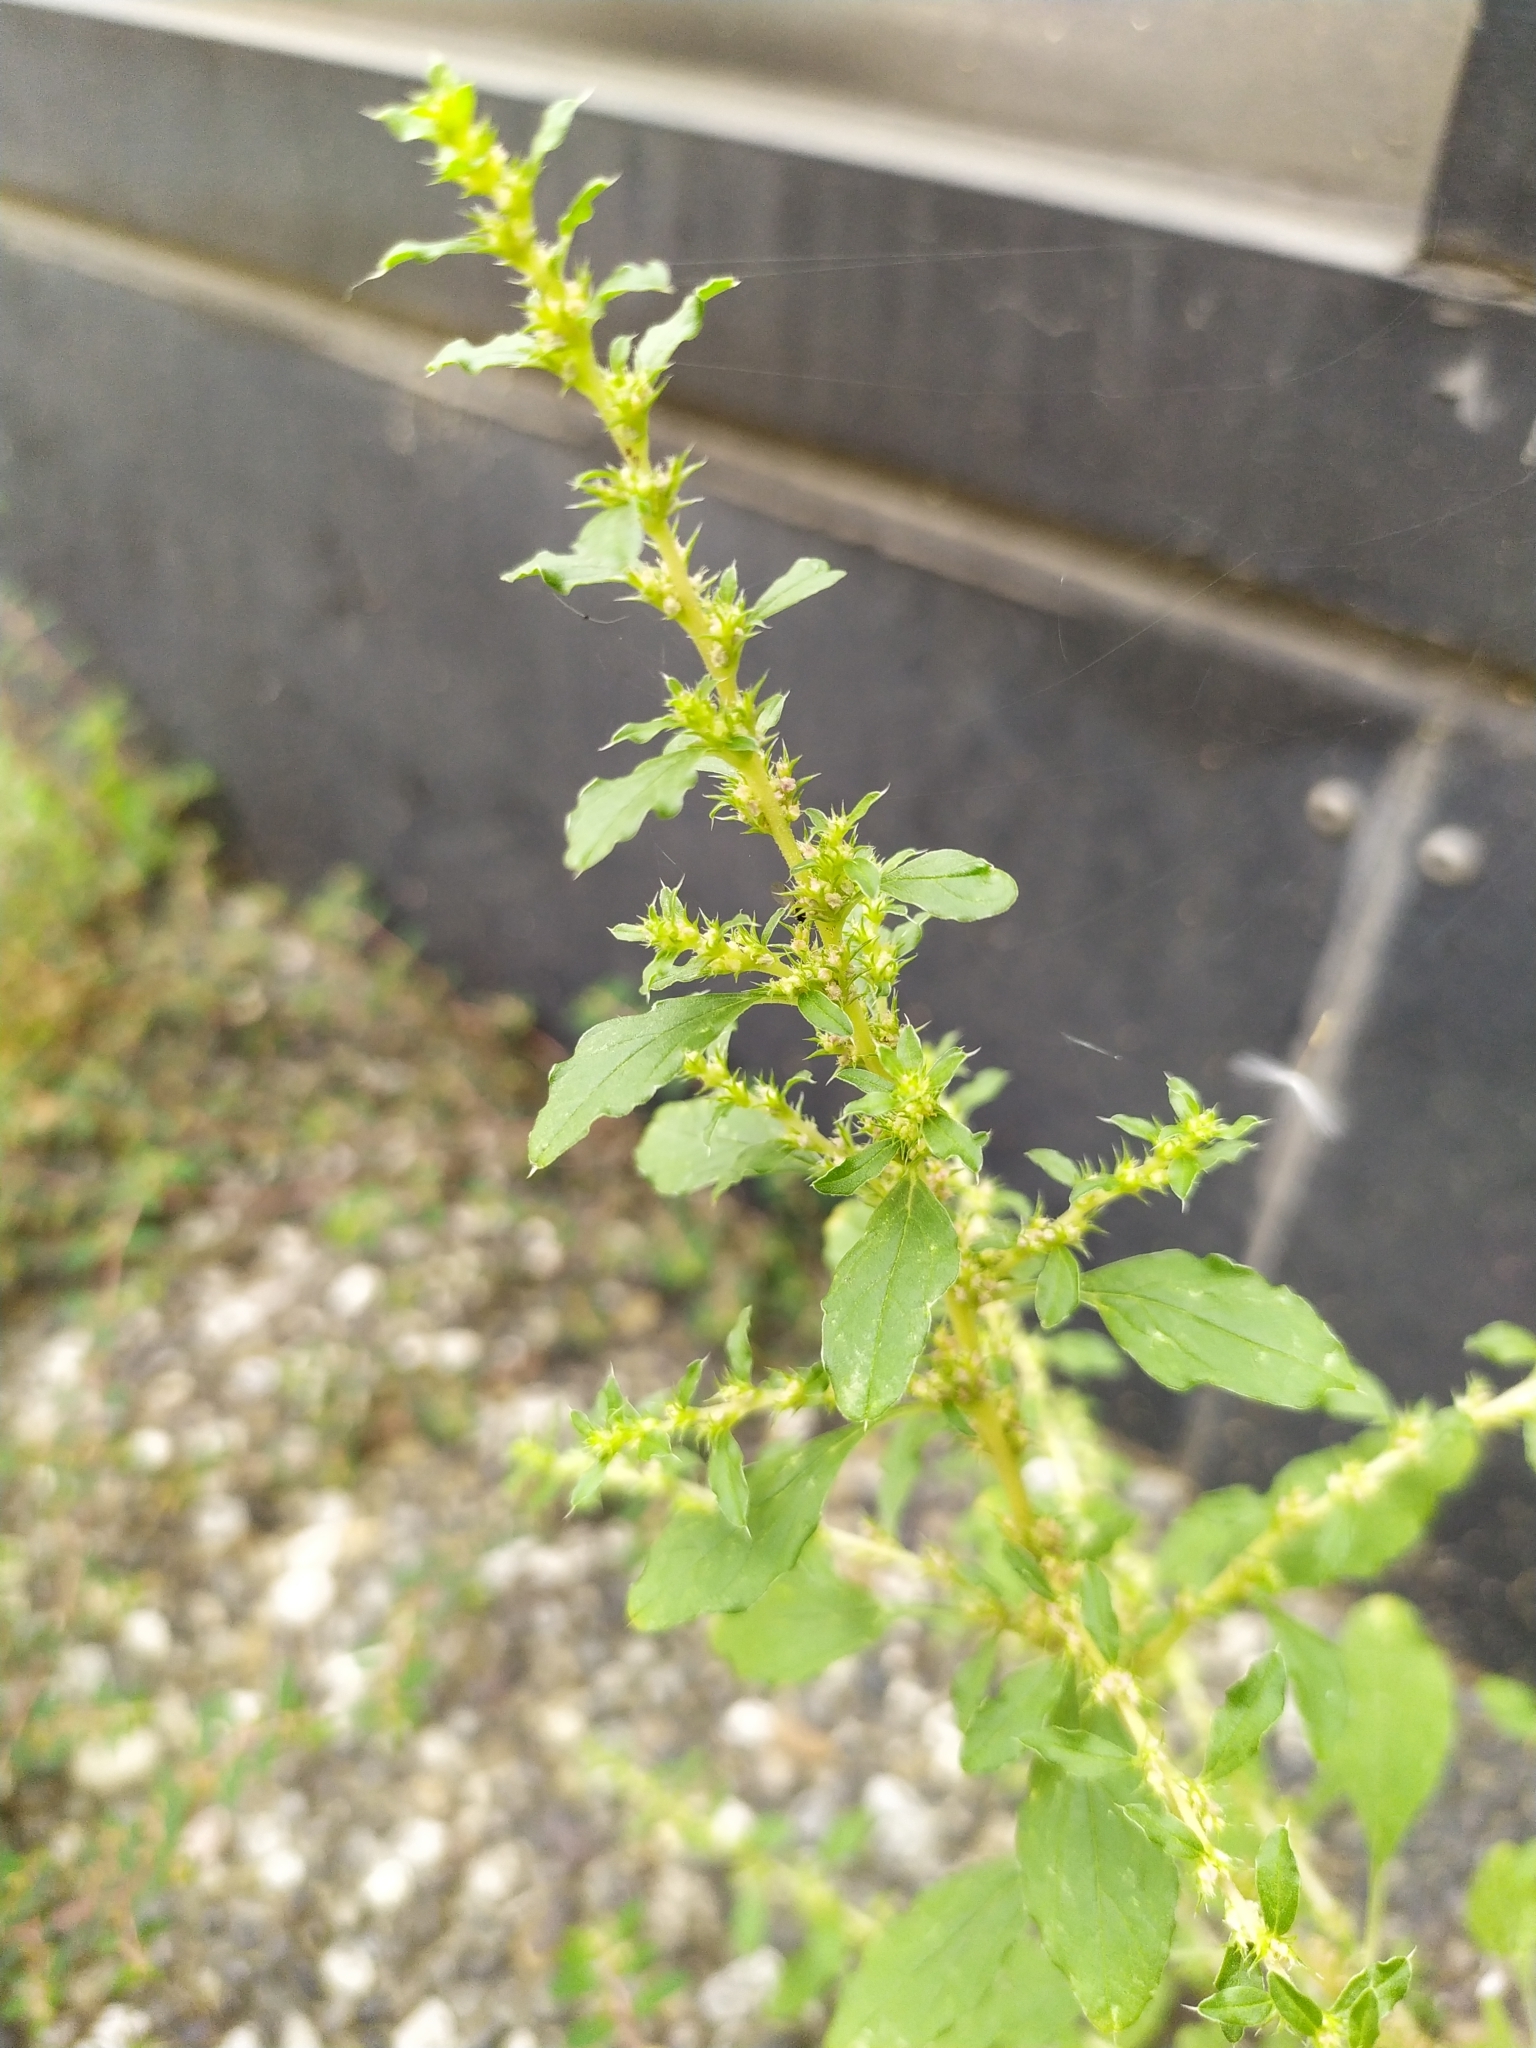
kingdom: Plantae
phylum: Tracheophyta
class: Magnoliopsida
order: Caryophyllales
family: Amaranthaceae
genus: Amaranthus
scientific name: Amaranthus albus
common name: White pigweed
